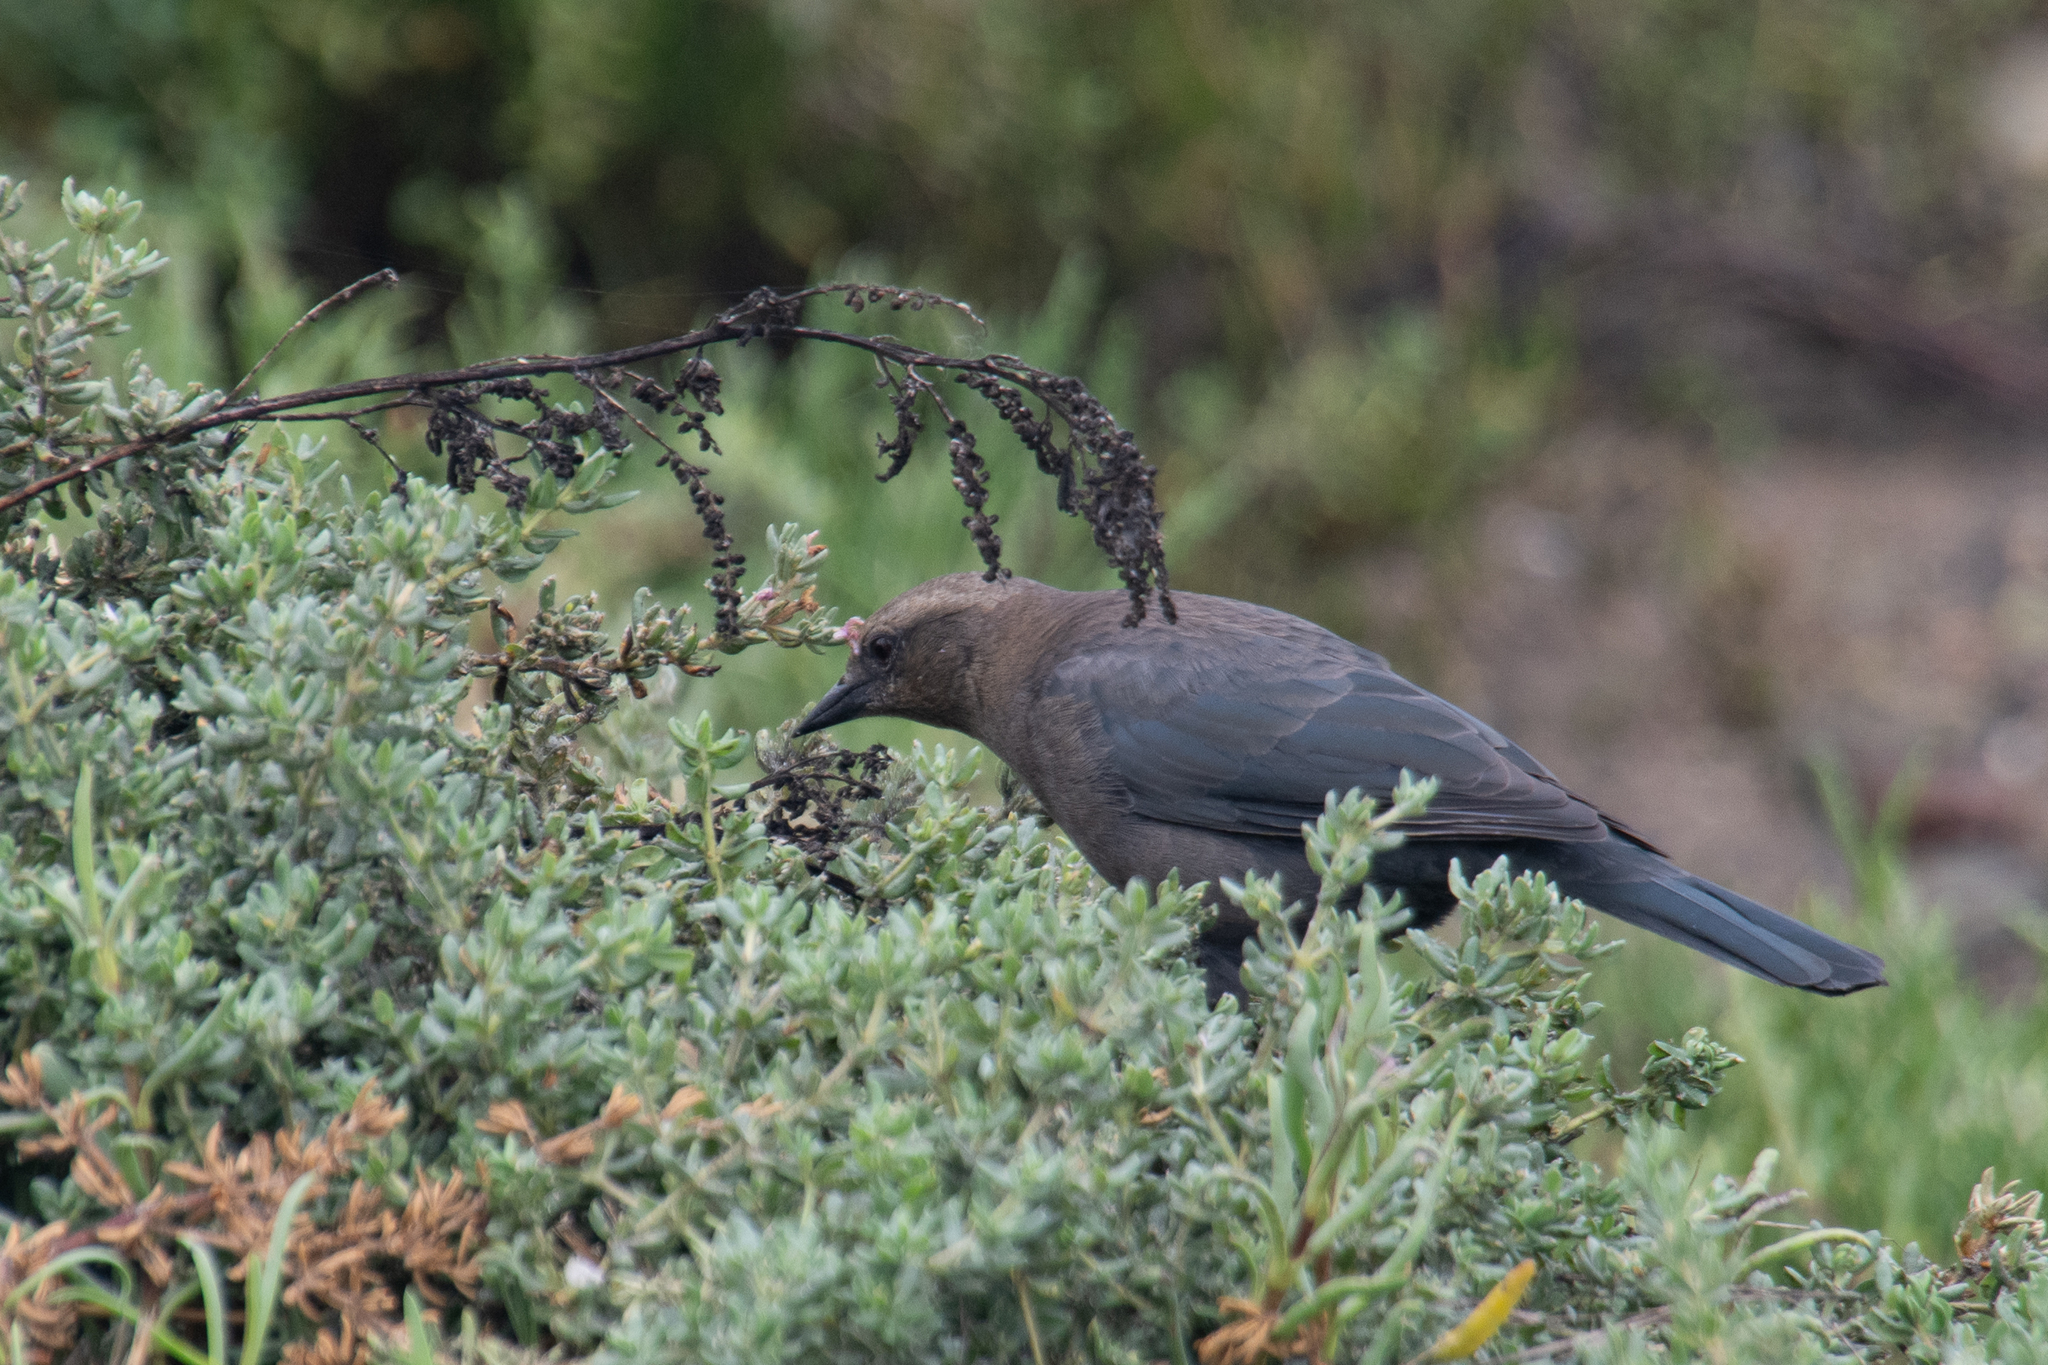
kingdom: Animalia
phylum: Chordata
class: Aves
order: Passeriformes
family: Icteridae
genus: Euphagus
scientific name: Euphagus cyanocephalus
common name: Brewer's blackbird
